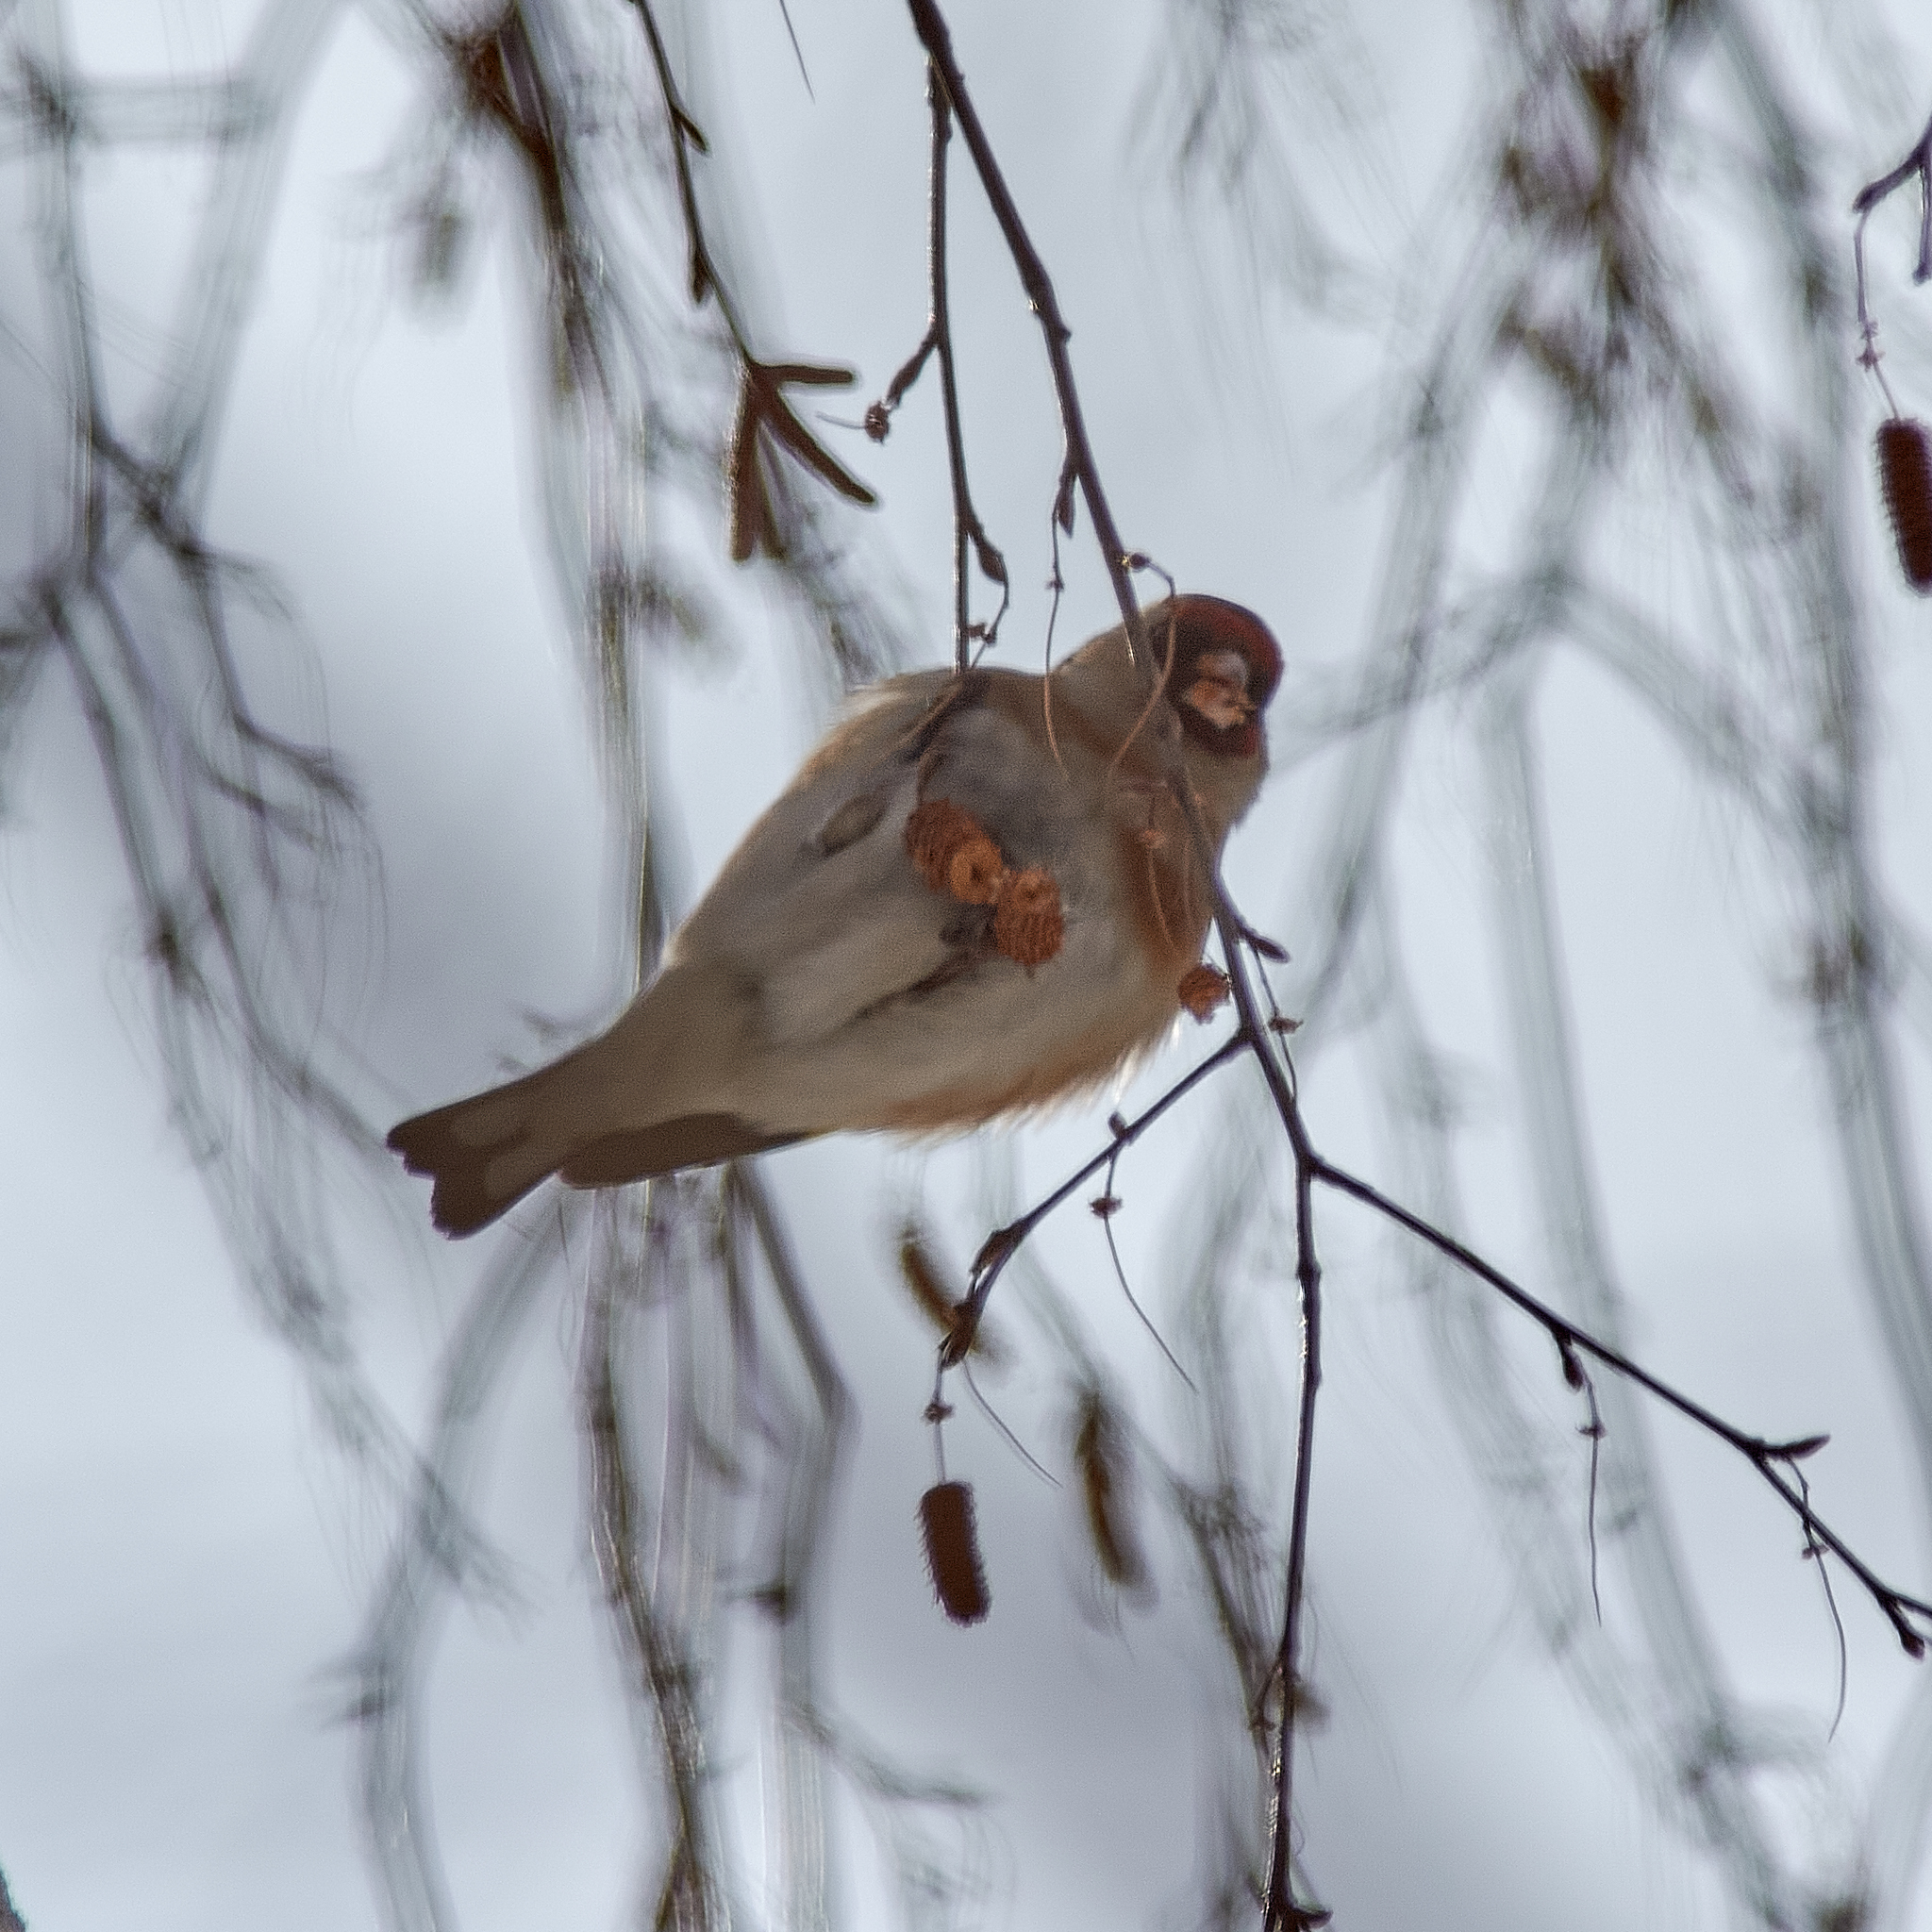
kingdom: Animalia
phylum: Chordata
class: Aves
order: Passeriformes
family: Fringillidae
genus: Carduelis
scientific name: Carduelis carduelis
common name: European goldfinch
